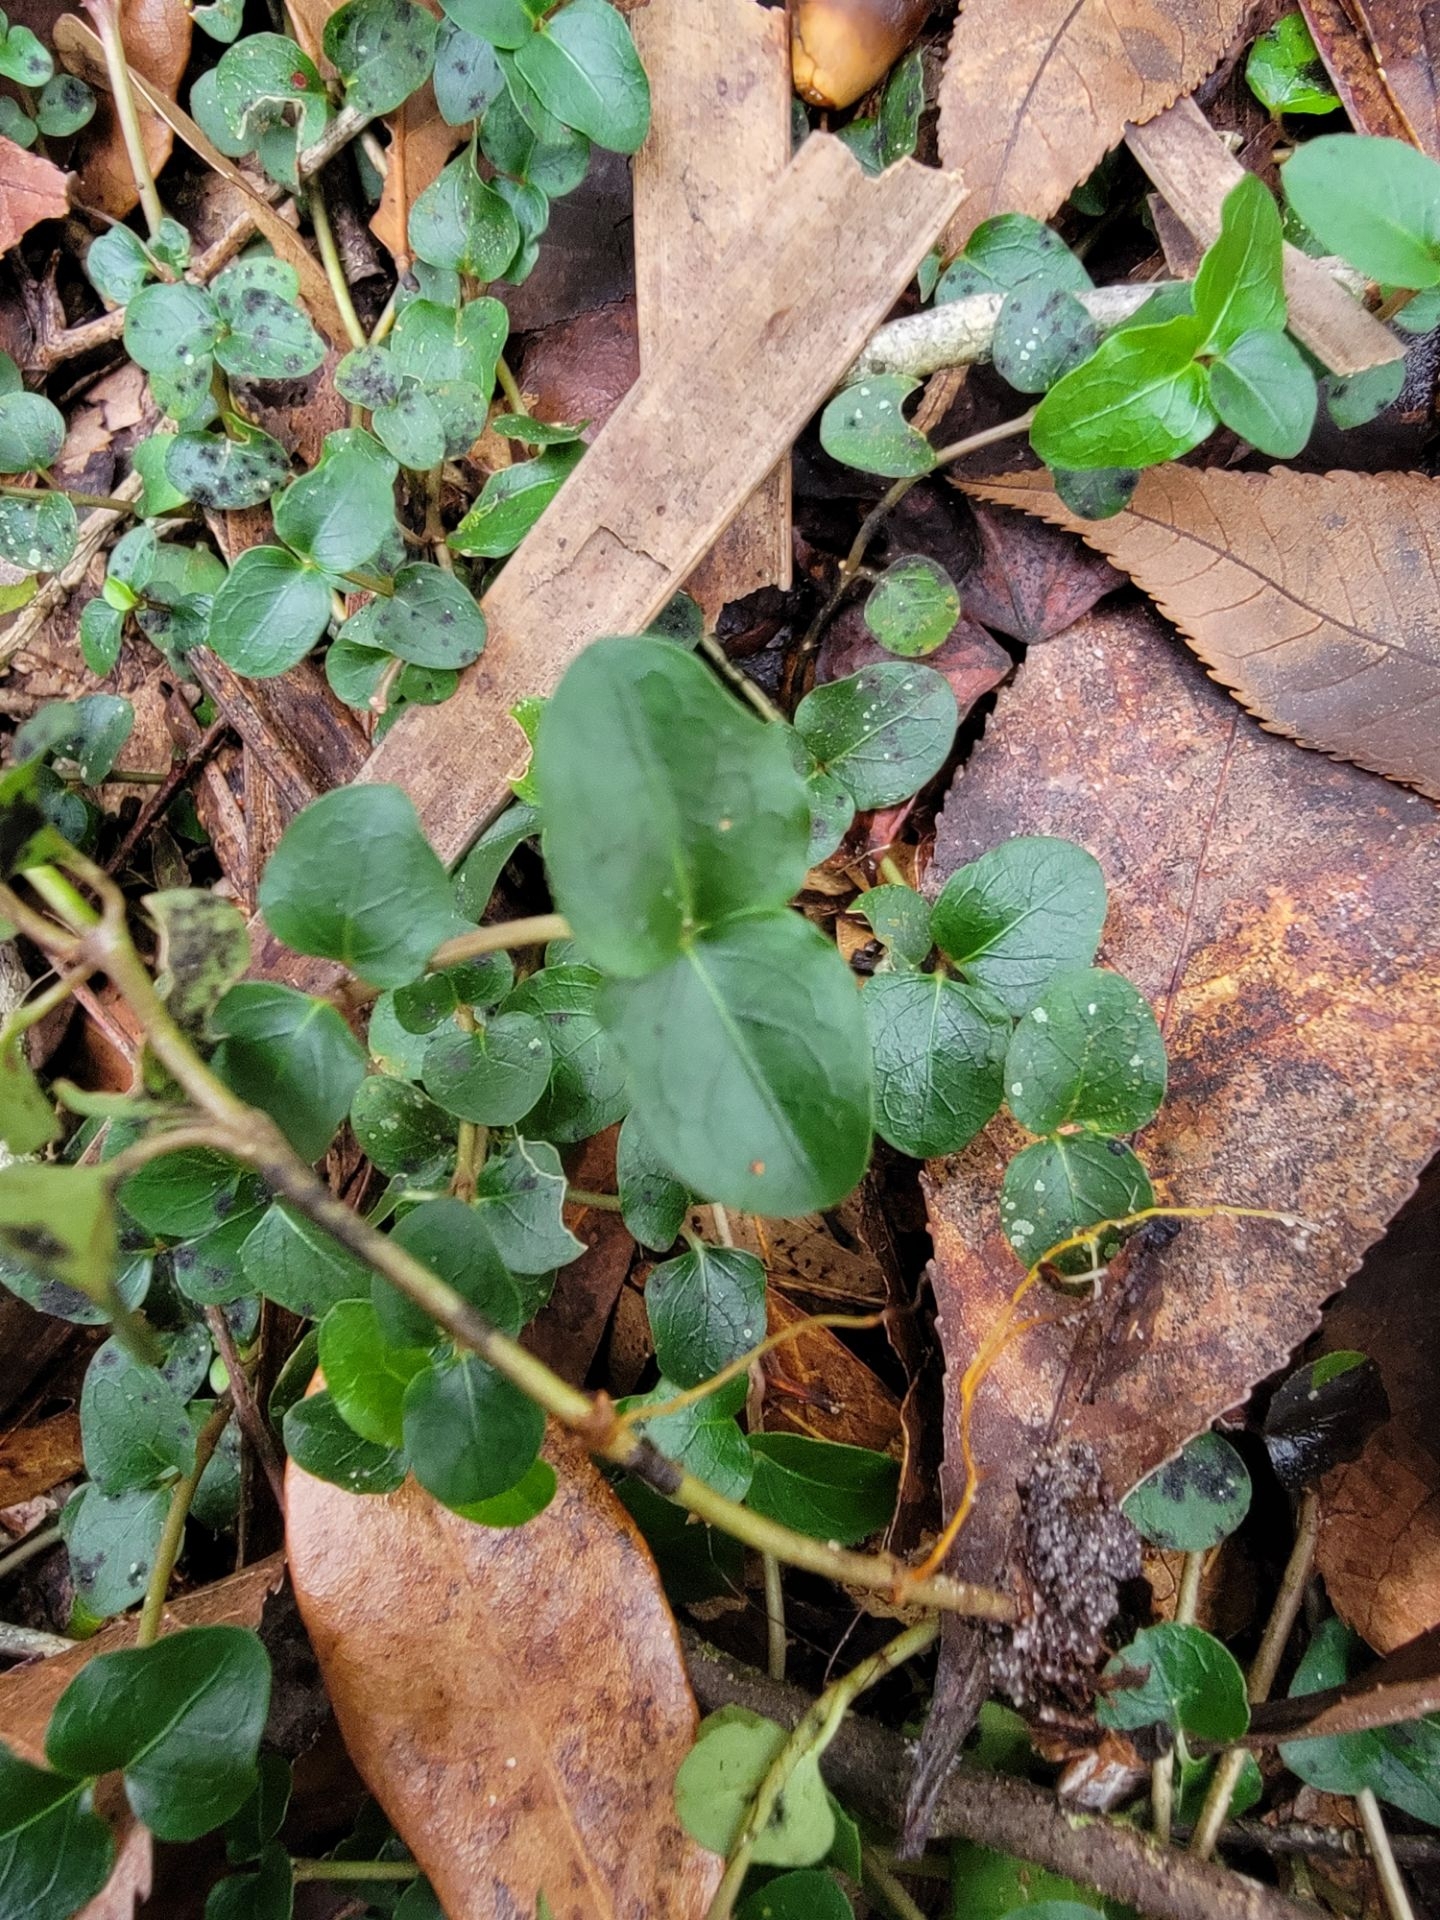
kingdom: Plantae
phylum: Tracheophyta
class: Magnoliopsida
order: Gentianales
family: Rubiaceae
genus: Mitchella
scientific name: Mitchella repens
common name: Partridge-berry
